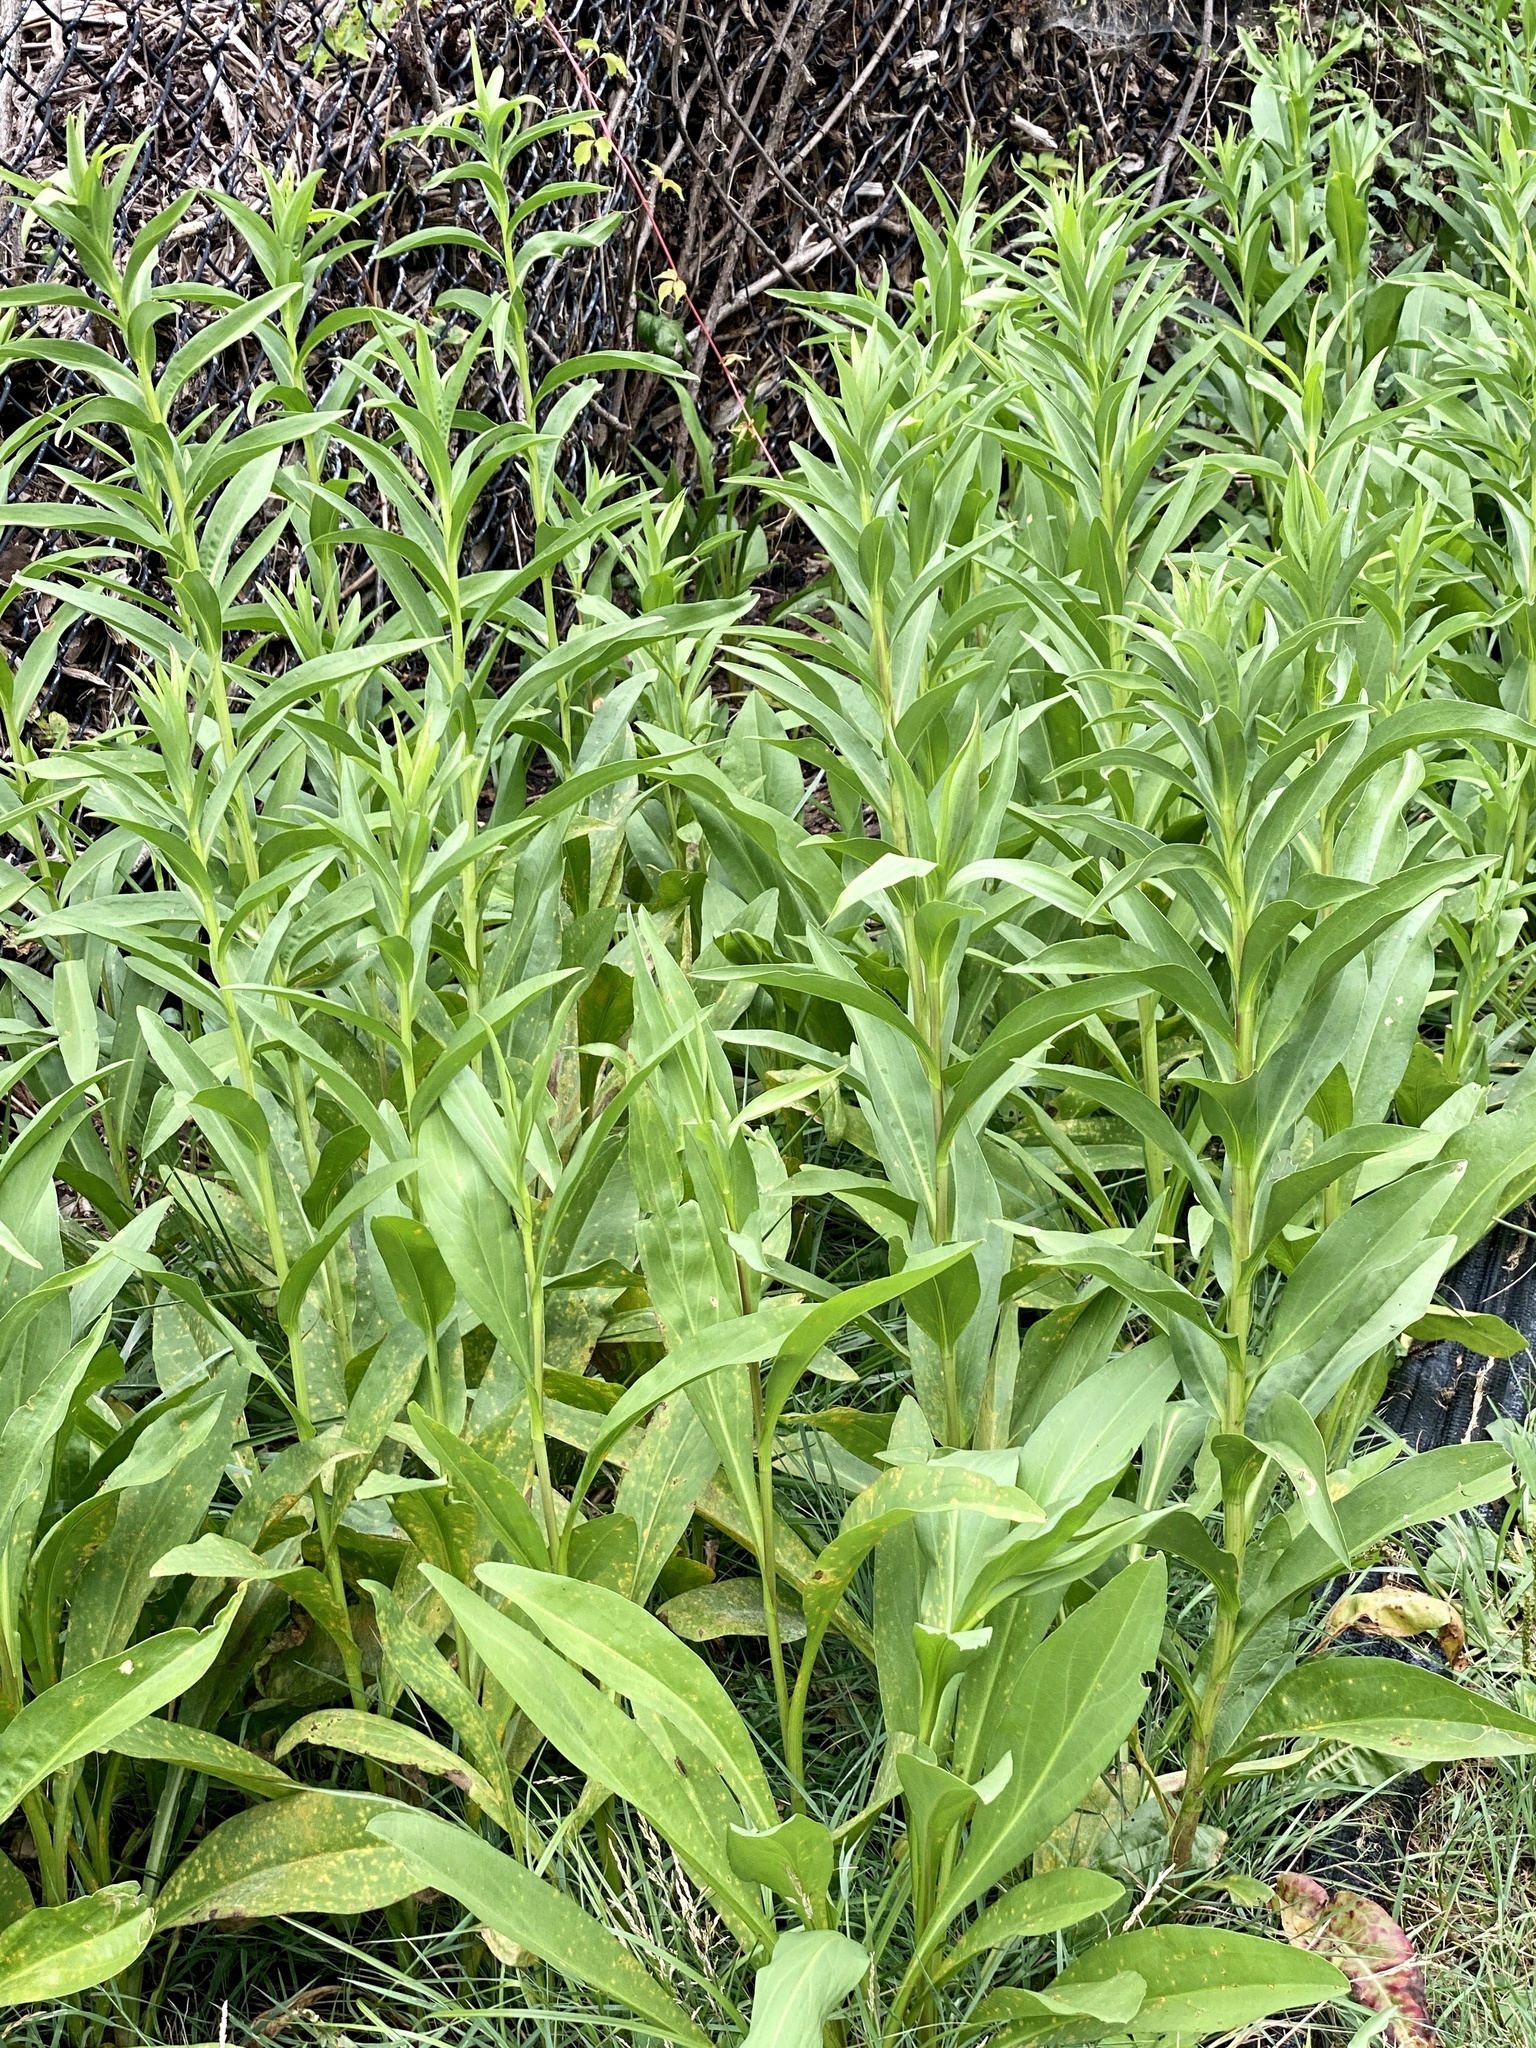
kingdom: Plantae
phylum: Tracheophyta
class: Magnoliopsida
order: Asterales
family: Asteraceae
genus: Solidago
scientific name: Solidago sempervirens
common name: Salt-marsh goldenrod
